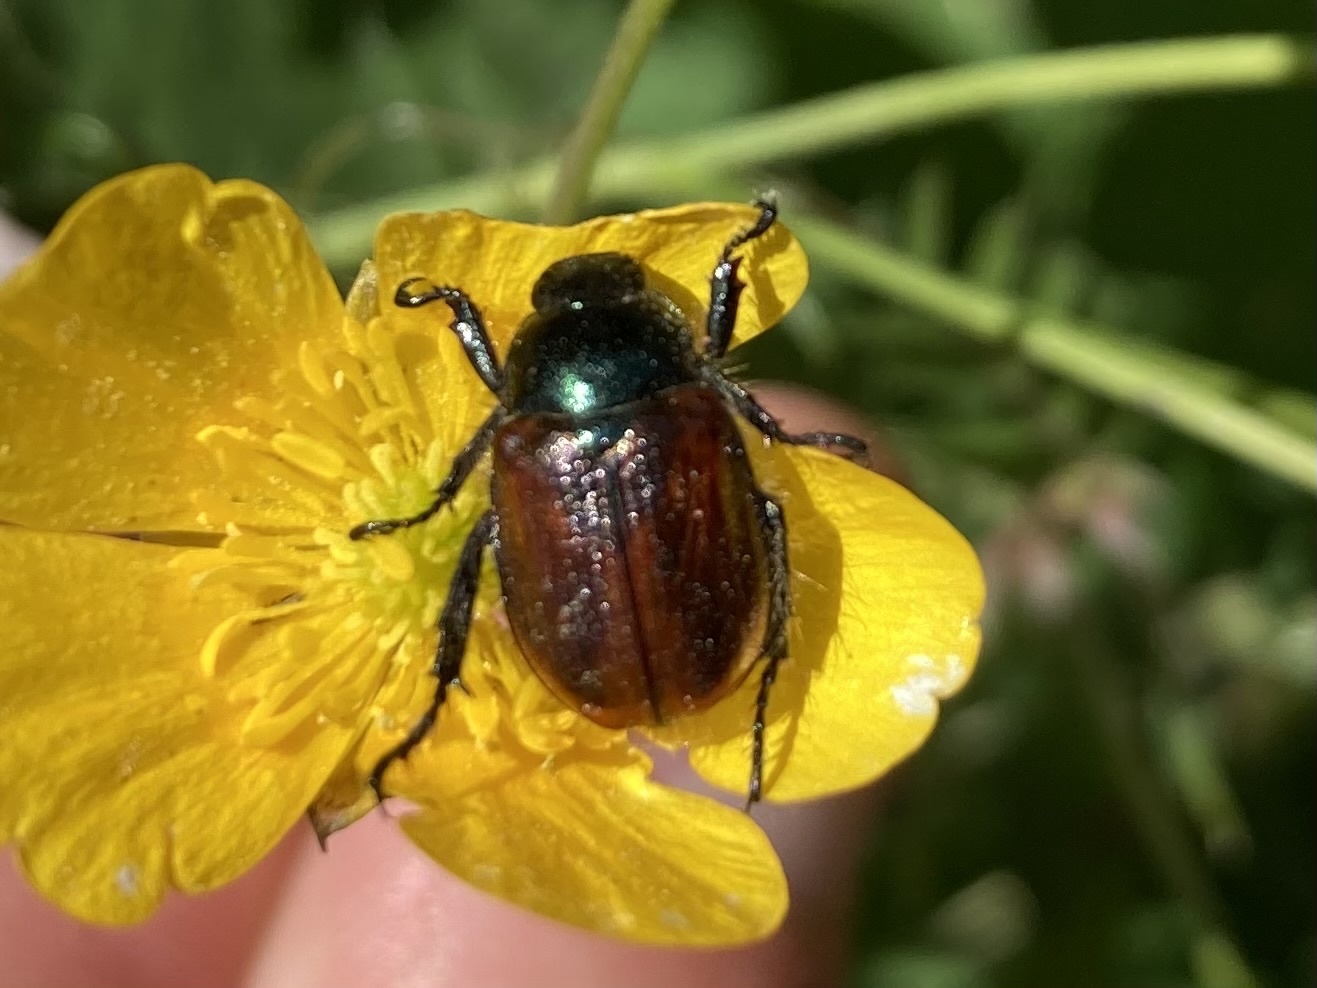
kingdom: Animalia
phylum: Arthropoda
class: Insecta
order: Coleoptera
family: Scarabaeidae
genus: Phyllopertha
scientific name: Phyllopertha horticola
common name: Garden chafer
